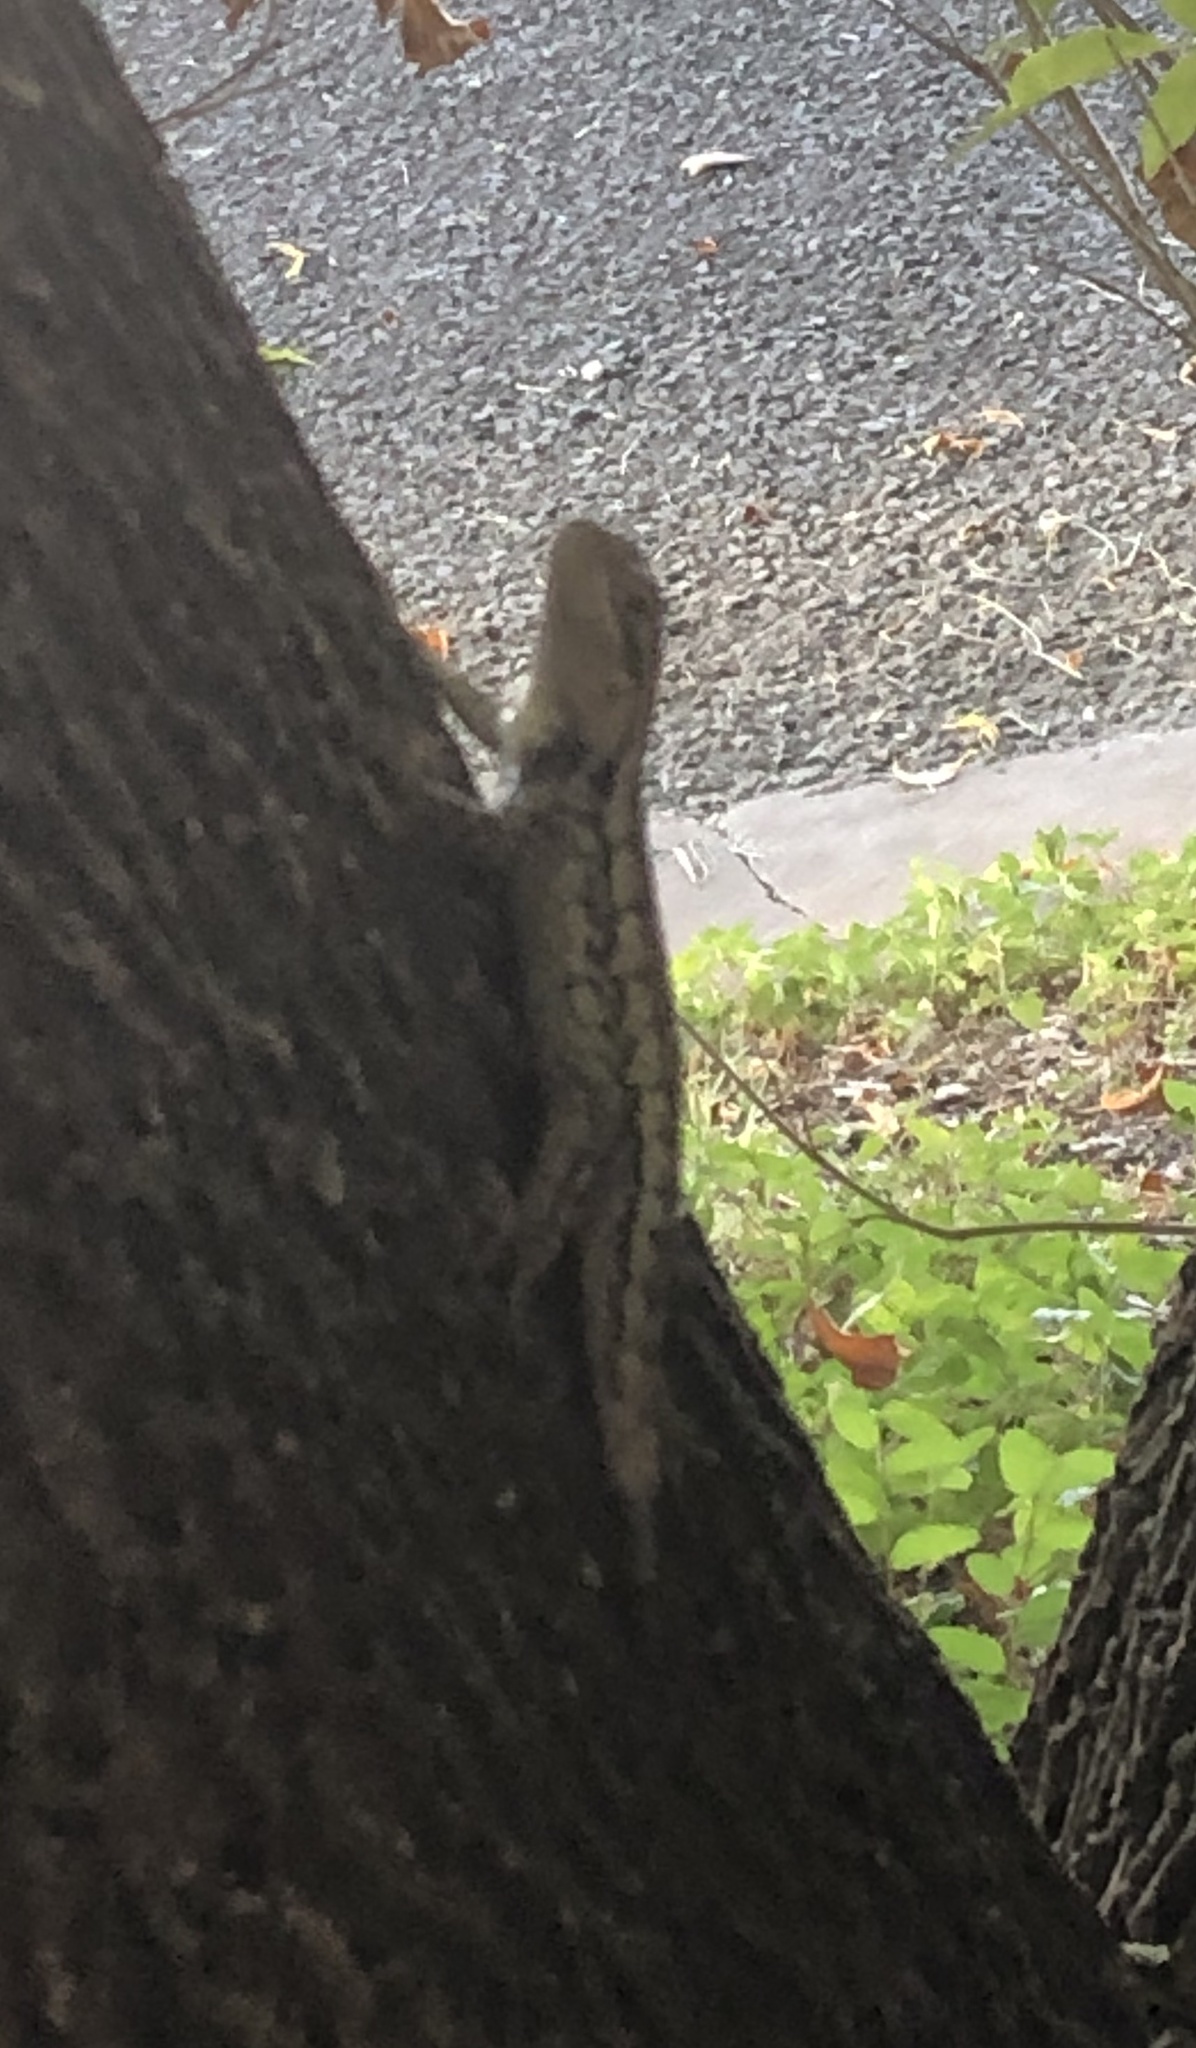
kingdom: Animalia
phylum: Chordata
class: Squamata
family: Phrynosomatidae
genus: Sceloporus
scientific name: Sceloporus olivaceus
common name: Texas spiny lizard
